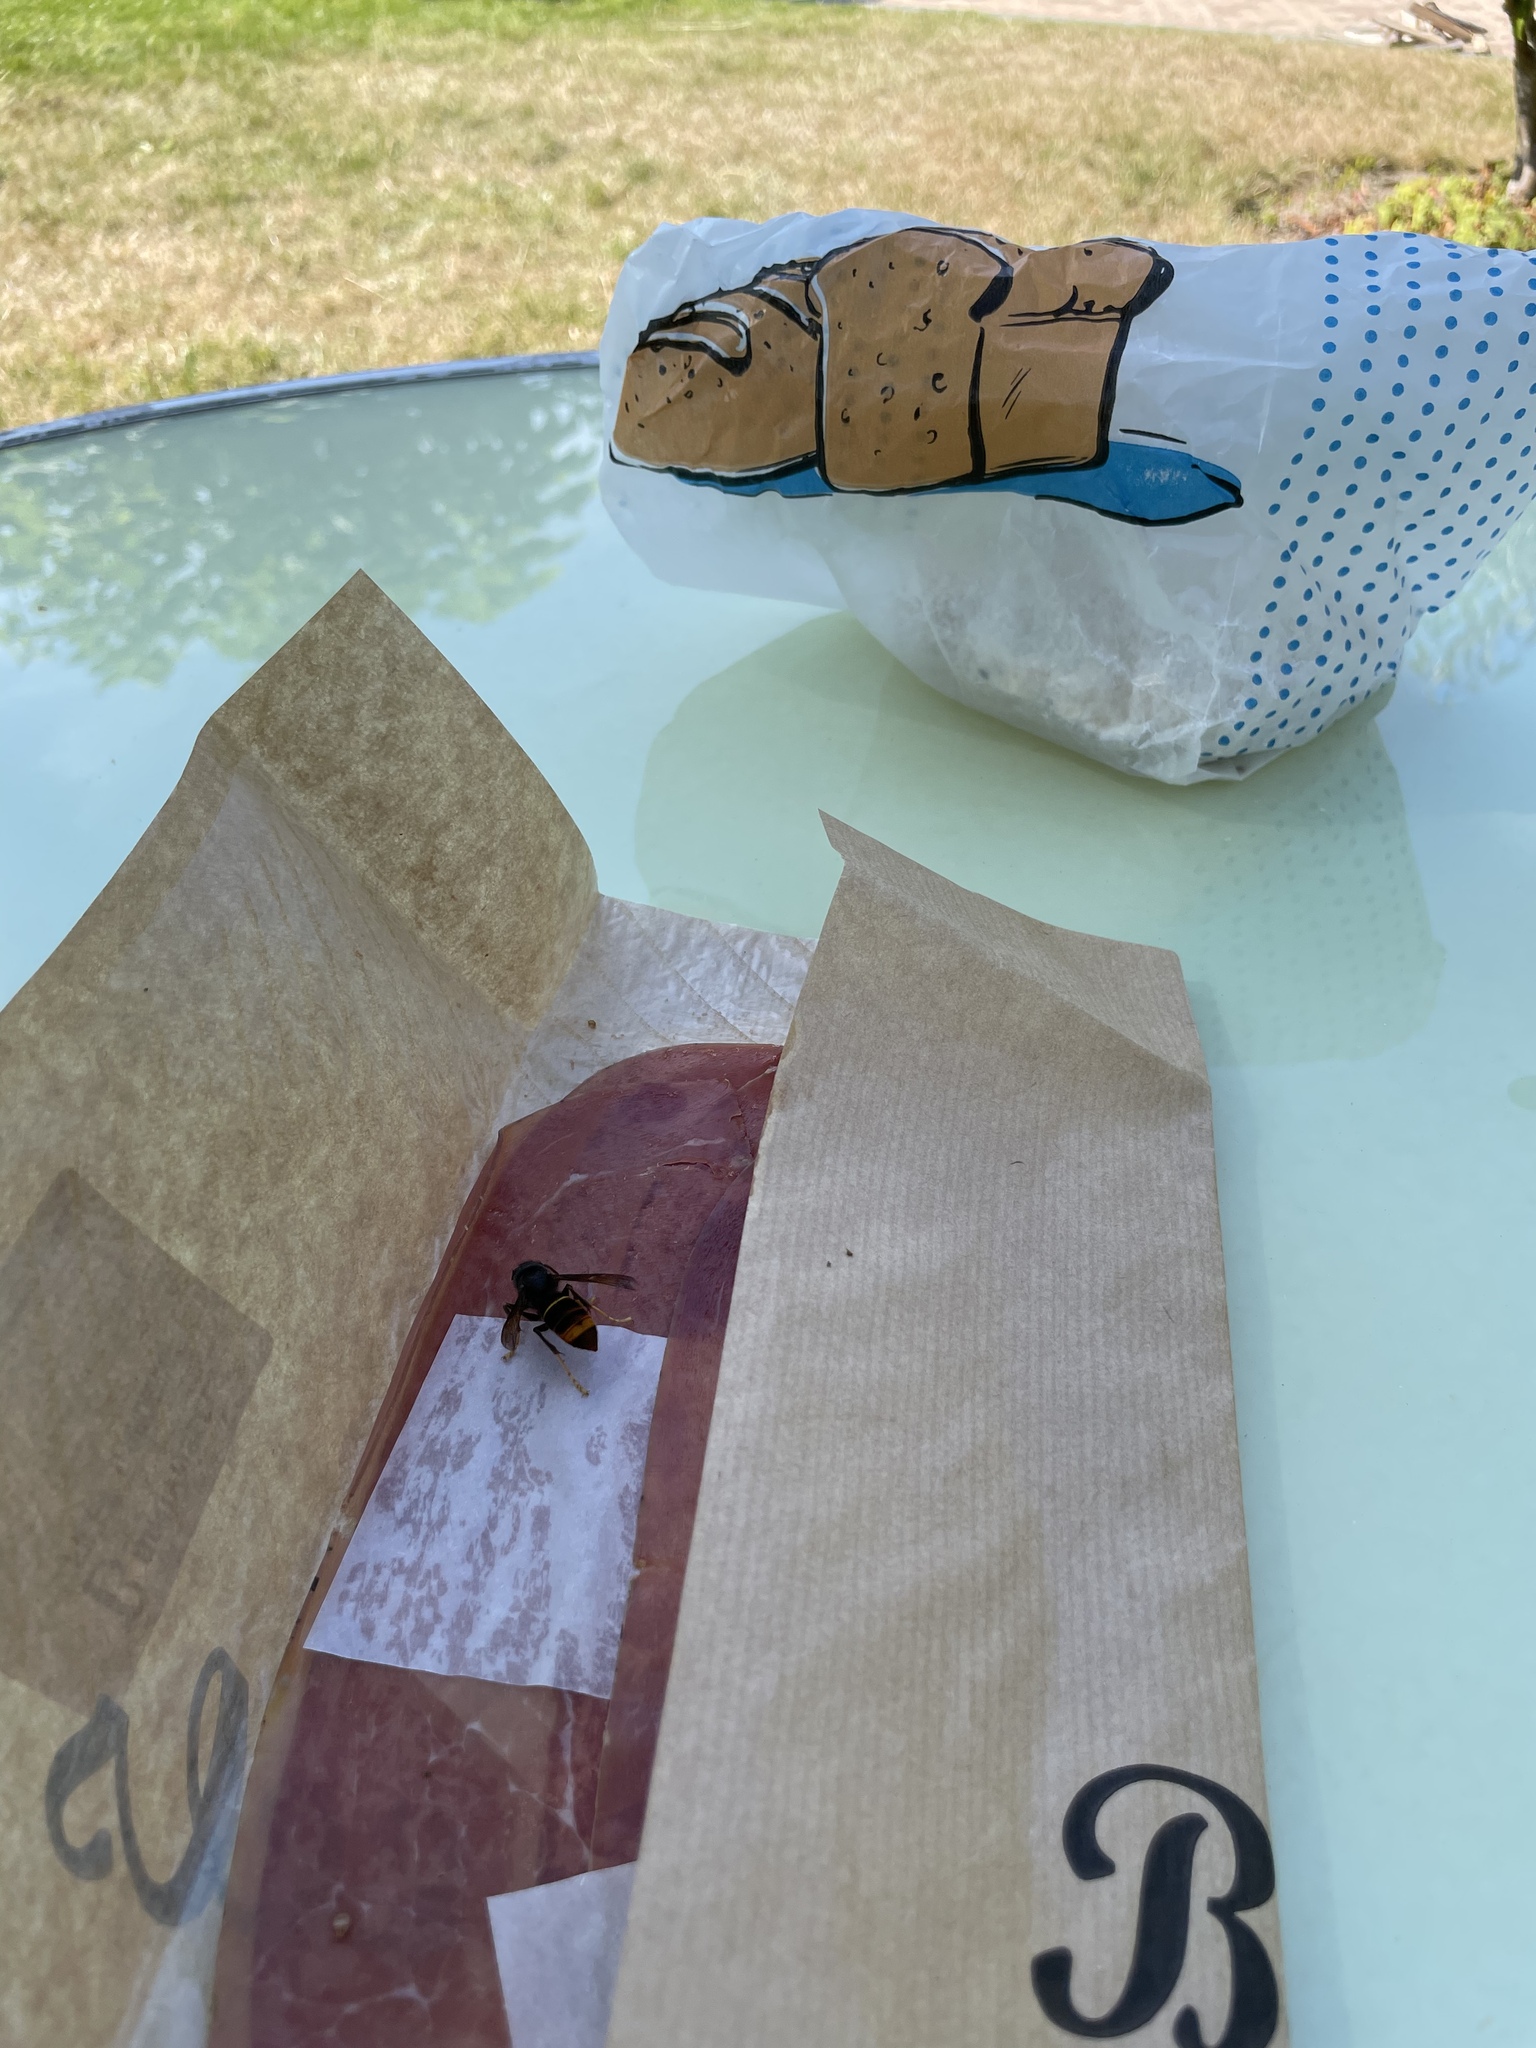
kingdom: Animalia
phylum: Arthropoda
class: Insecta
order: Hymenoptera
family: Vespidae
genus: Vespa
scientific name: Vespa velutina
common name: Asian hornet
